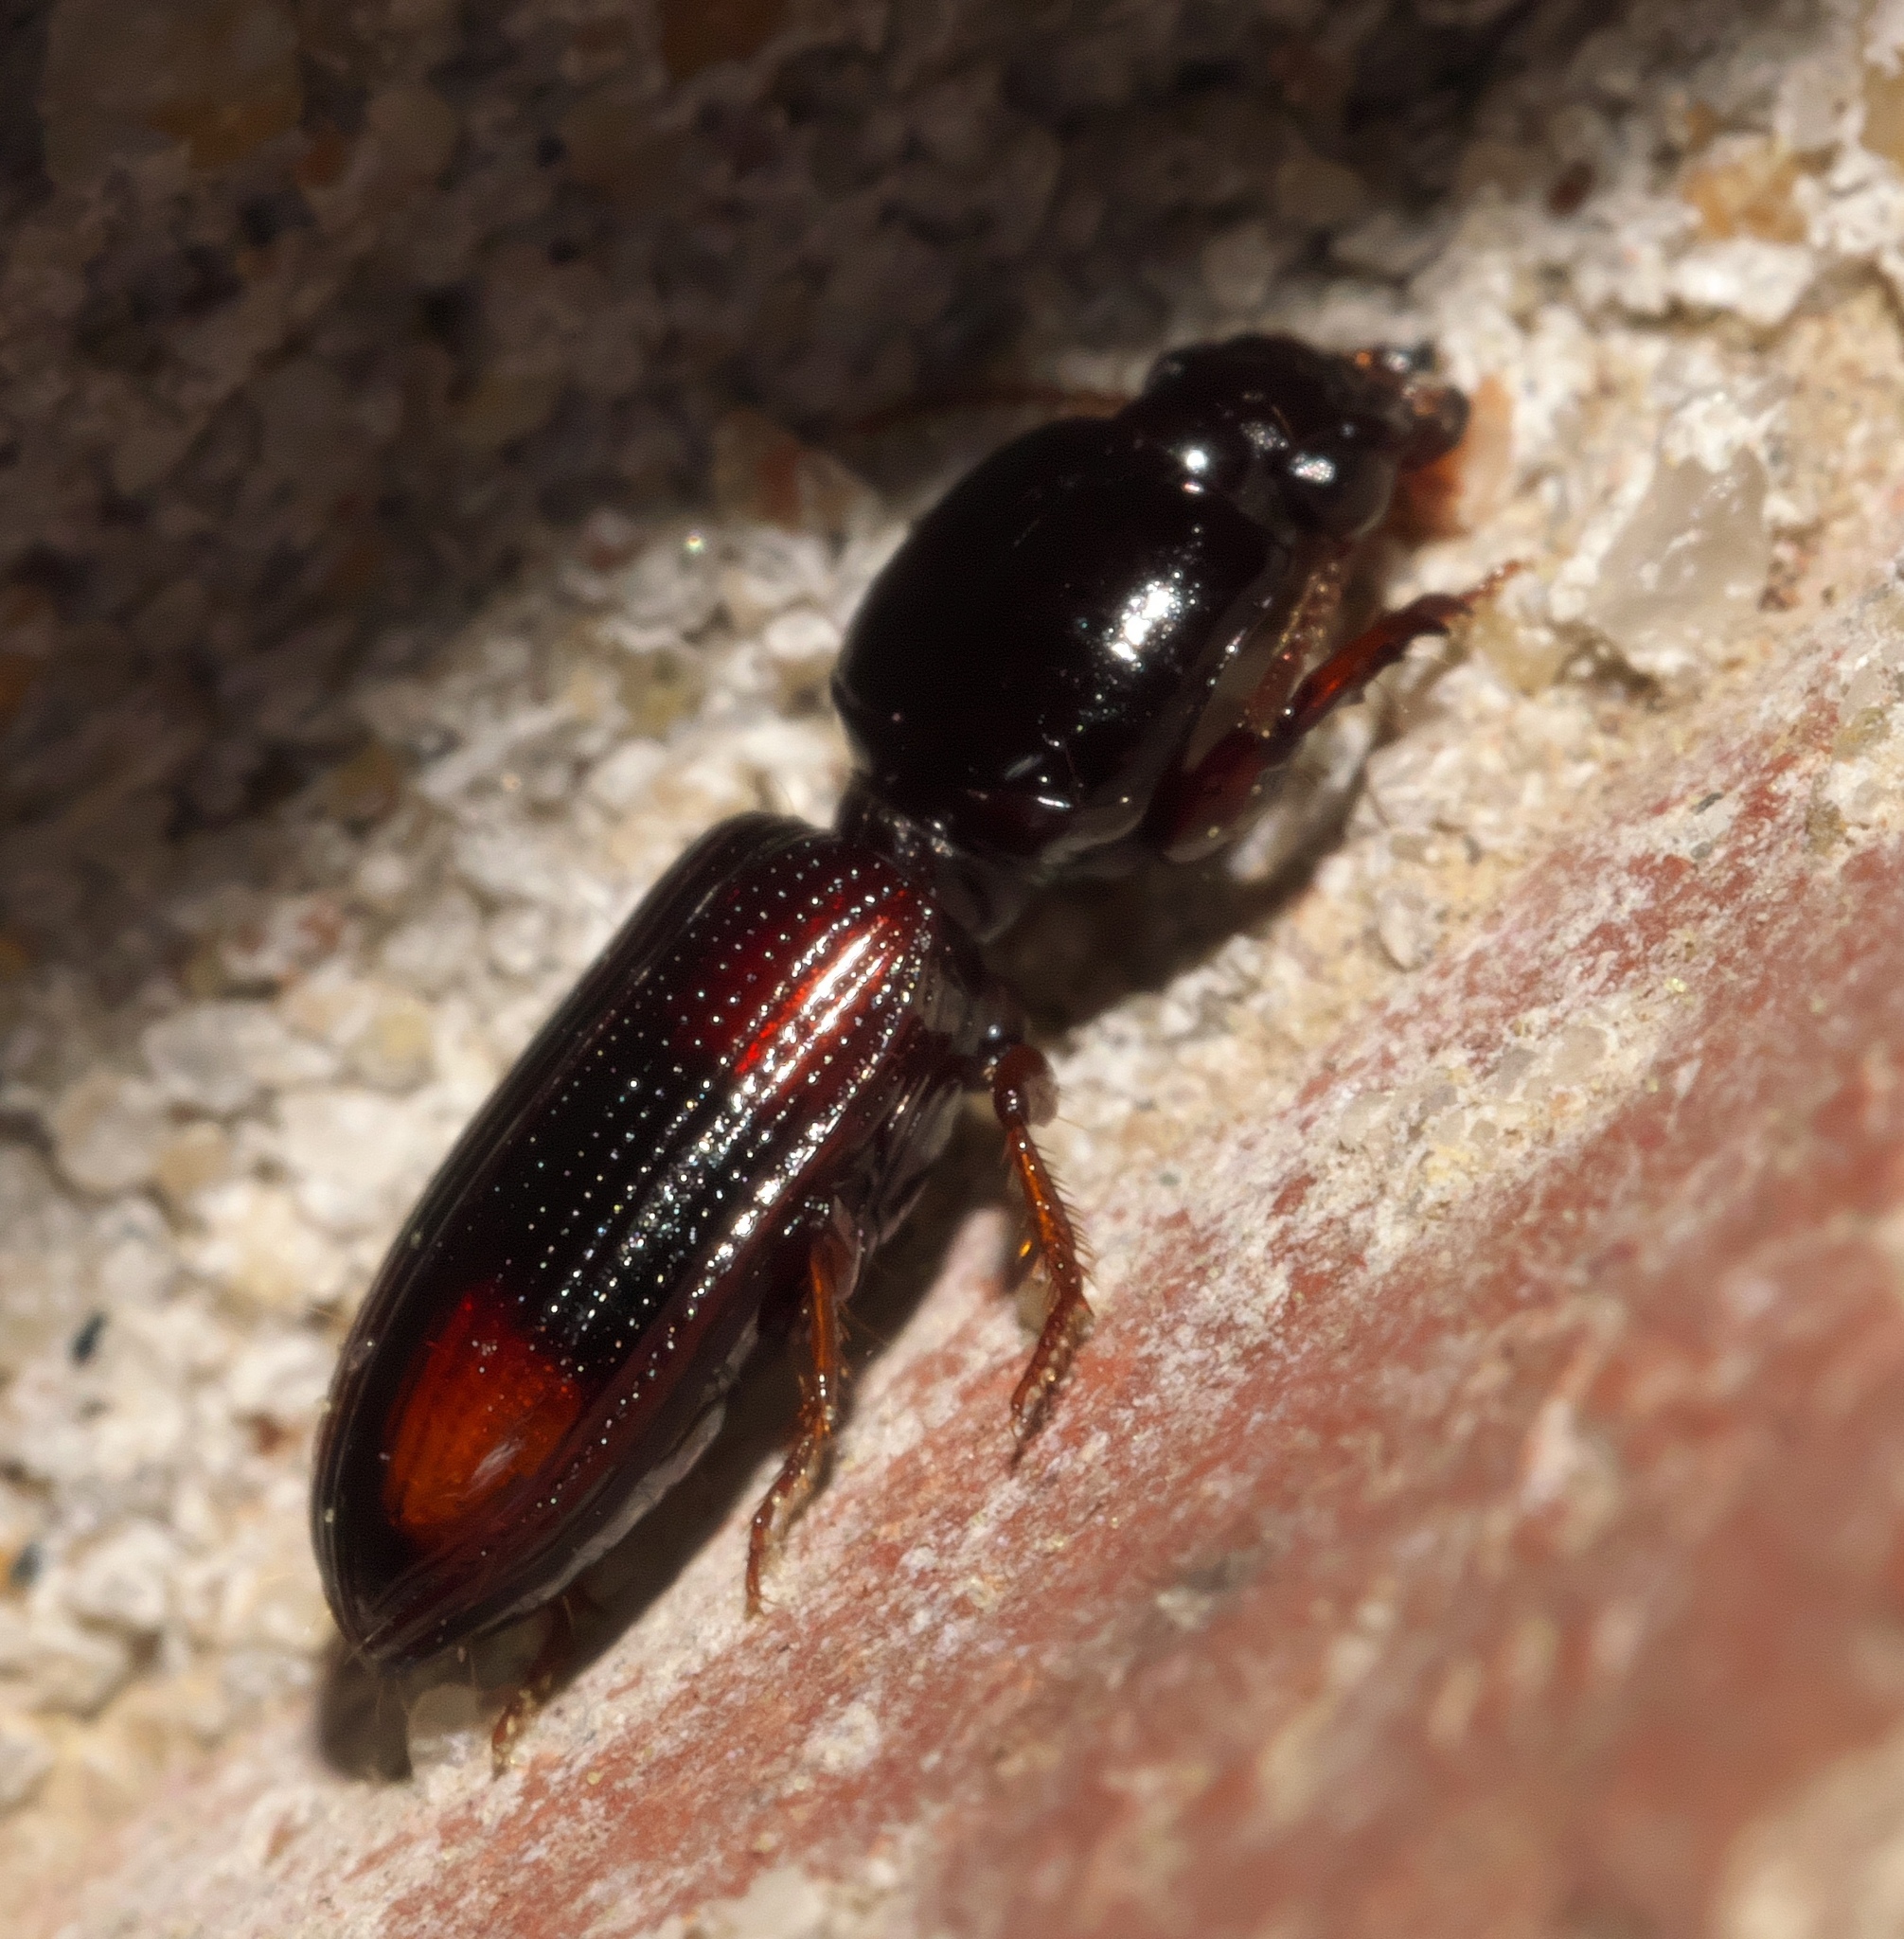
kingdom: Animalia
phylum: Arthropoda
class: Insecta
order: Coleoptera
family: Carabidae
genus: Clivina
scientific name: Clivina bipustulata
